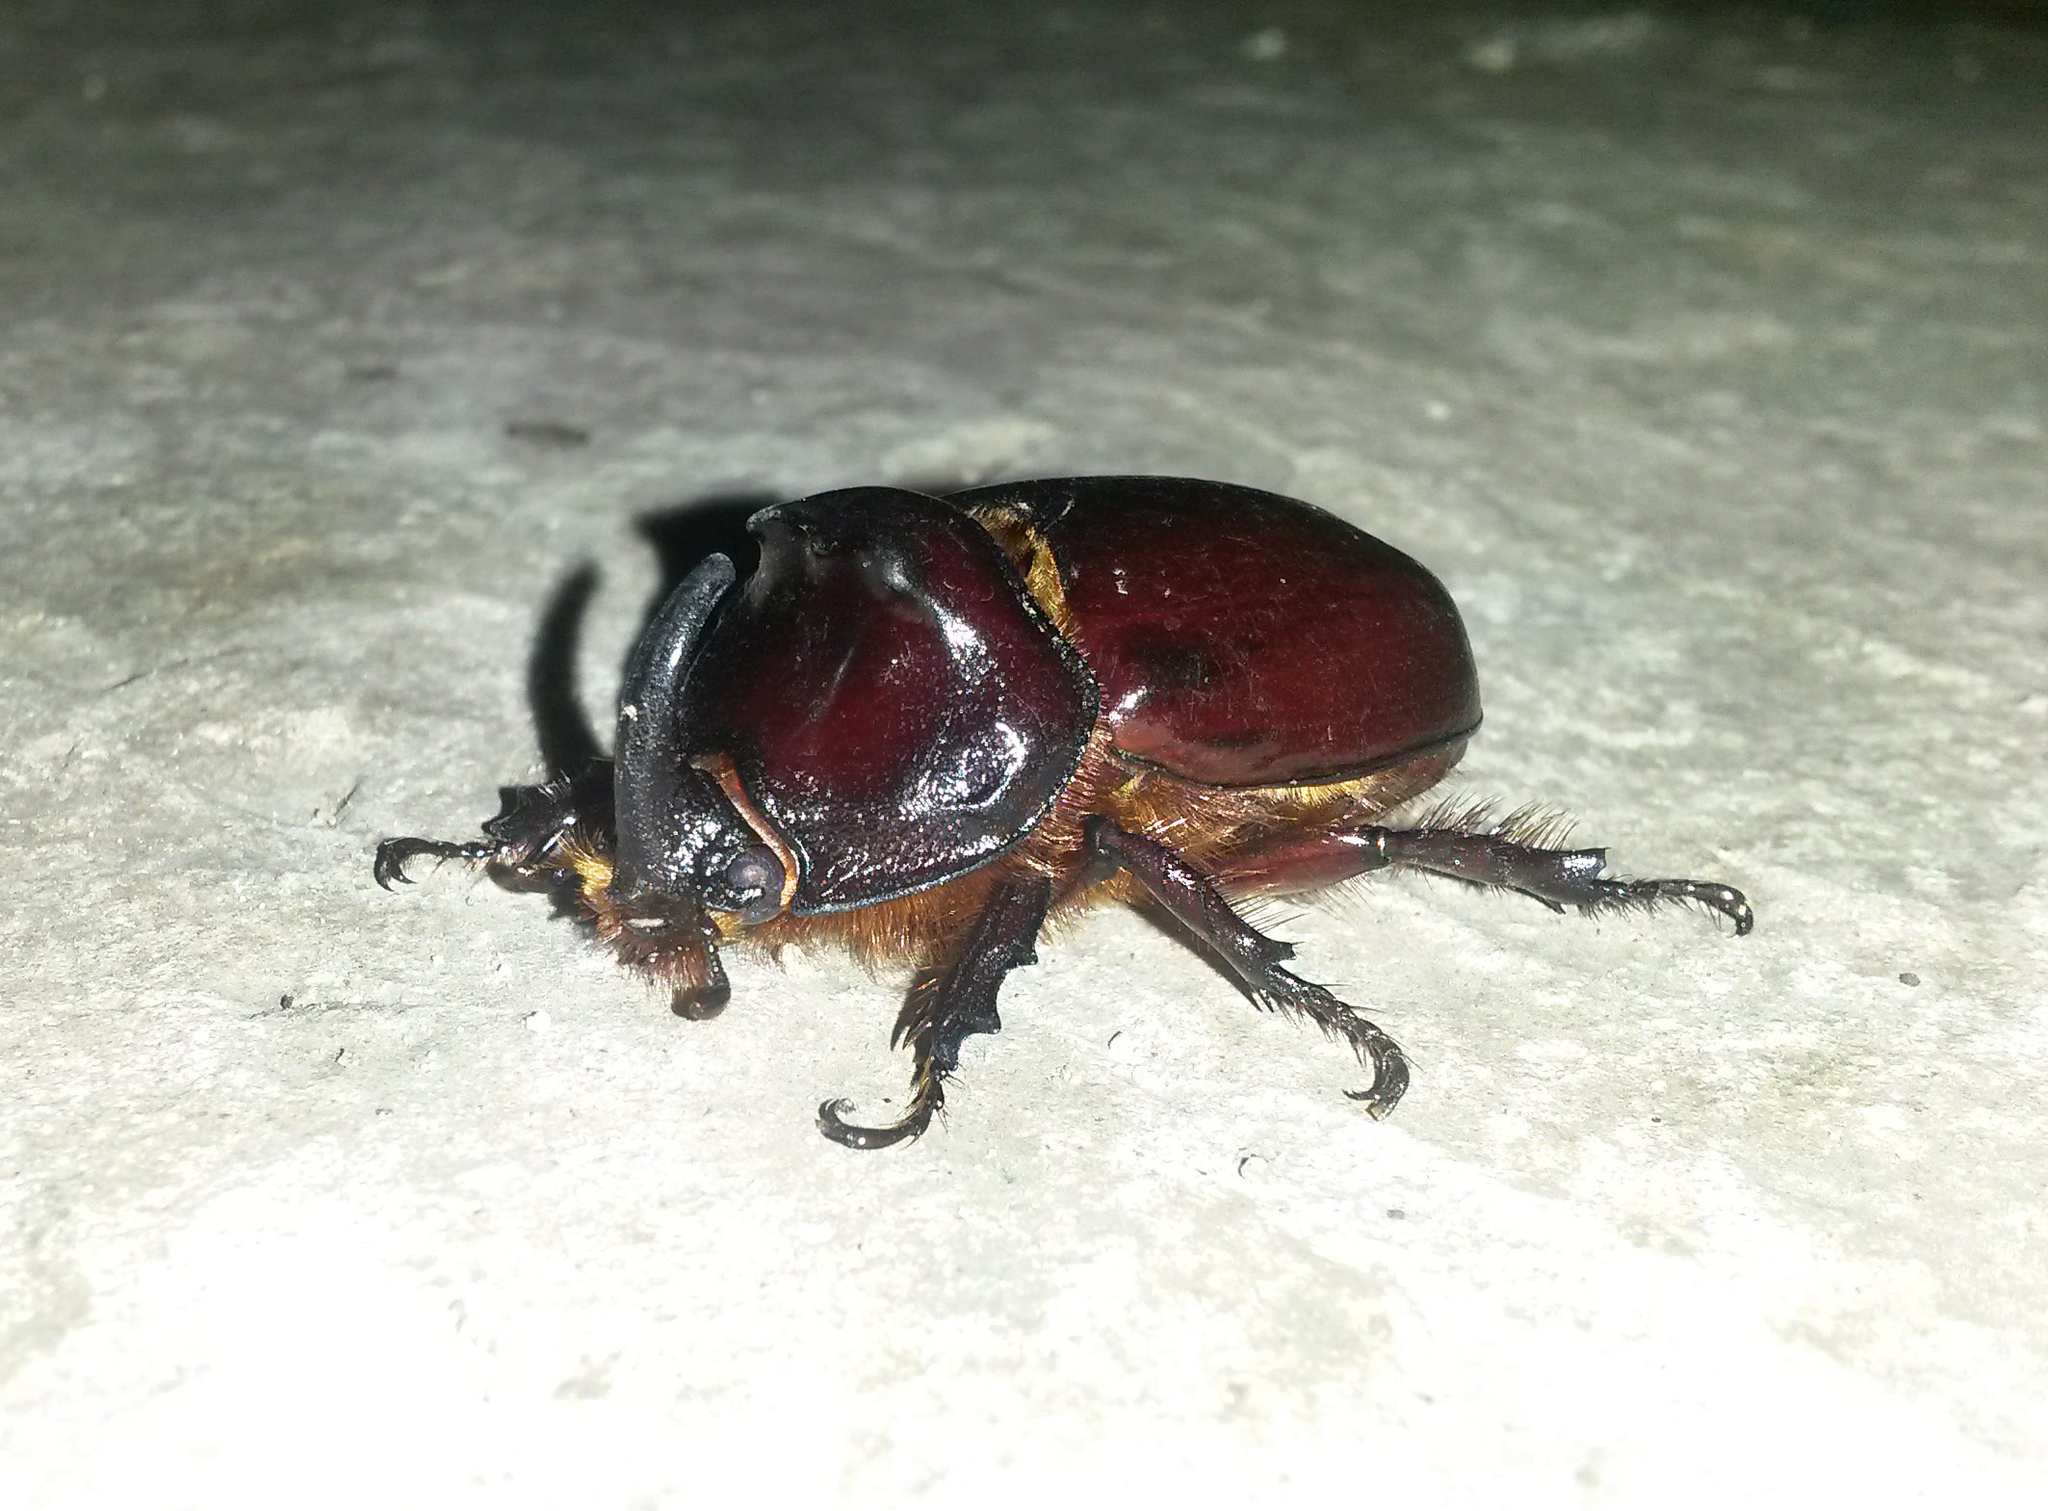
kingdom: Animalia
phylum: Arthropoda
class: Insecta
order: Coleoptera
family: Scarabaeidae
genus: Oryctes
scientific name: Oryctes nasicornis
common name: European rhinoceros beetle
